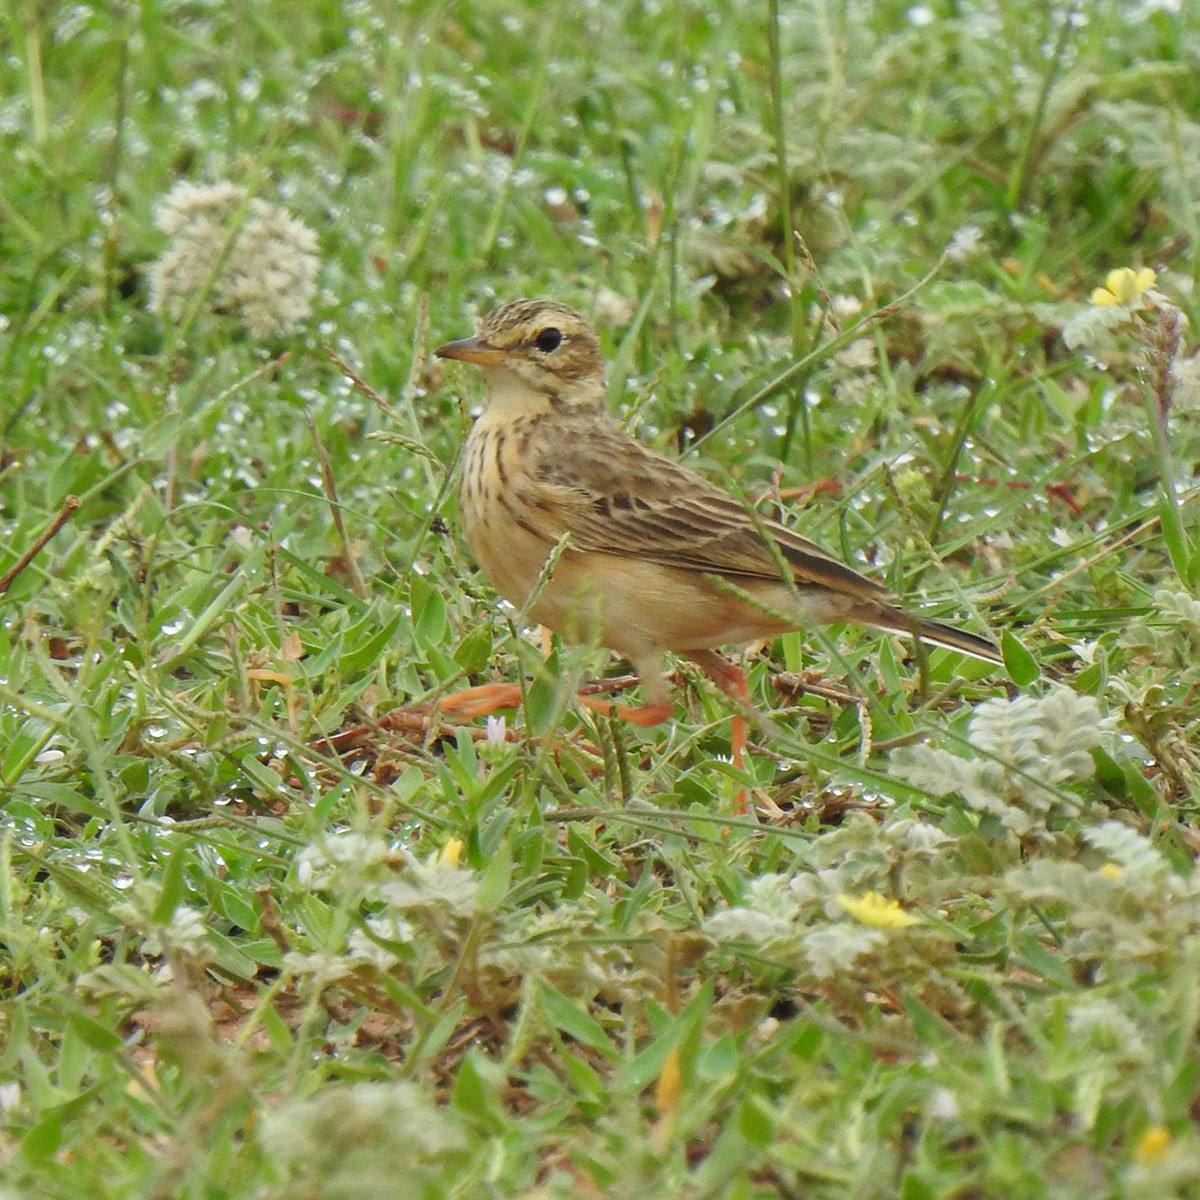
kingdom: Animalia
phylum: Chordata
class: Aves
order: Passeriformes
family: Motacillidae
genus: Anthus
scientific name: Anthus rufulus
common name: Paddyfield pipit
